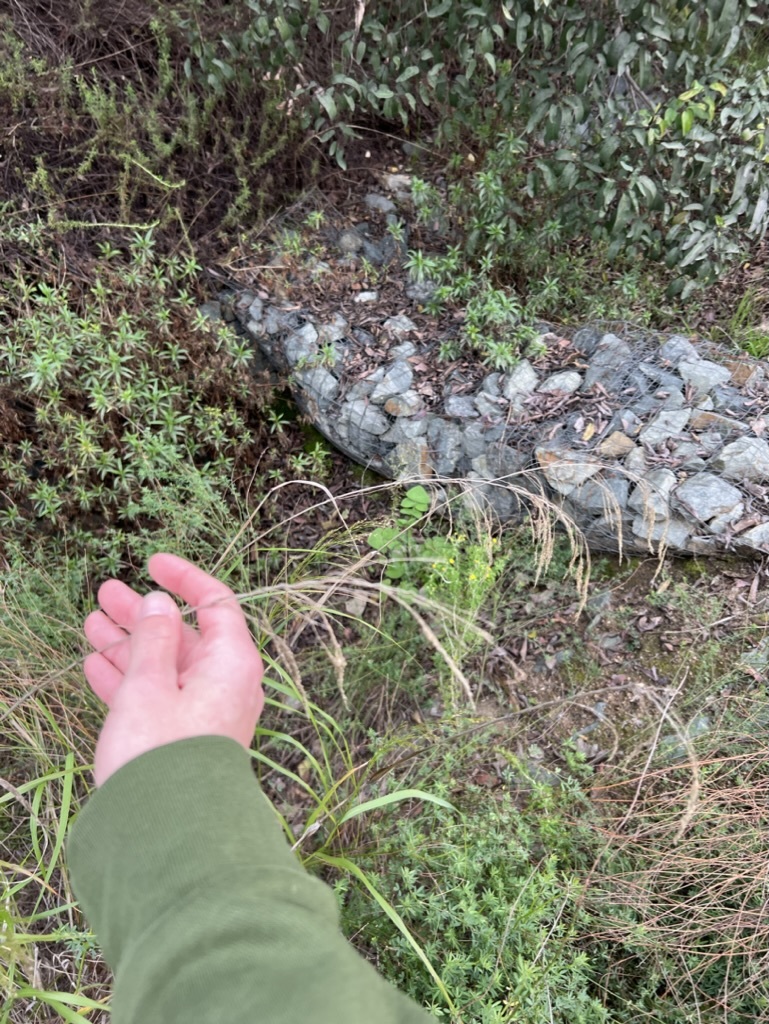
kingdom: Plantae
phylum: Tracheophyta
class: Liliopsida
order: Poales
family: Poaceae
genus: Oloptum
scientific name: Oloptum miliaceum
